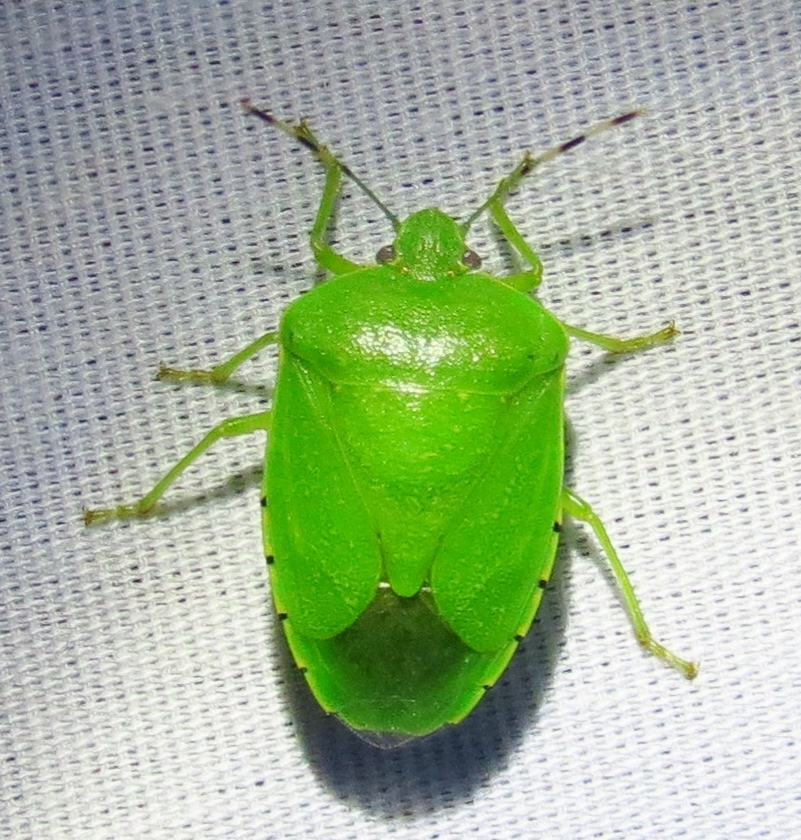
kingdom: Animalia
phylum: Arthropoda
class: Insecta
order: Hemiptera
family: Pentatomidae
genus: Chinavia
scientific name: Chinavia hilaris
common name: Green stink bug
